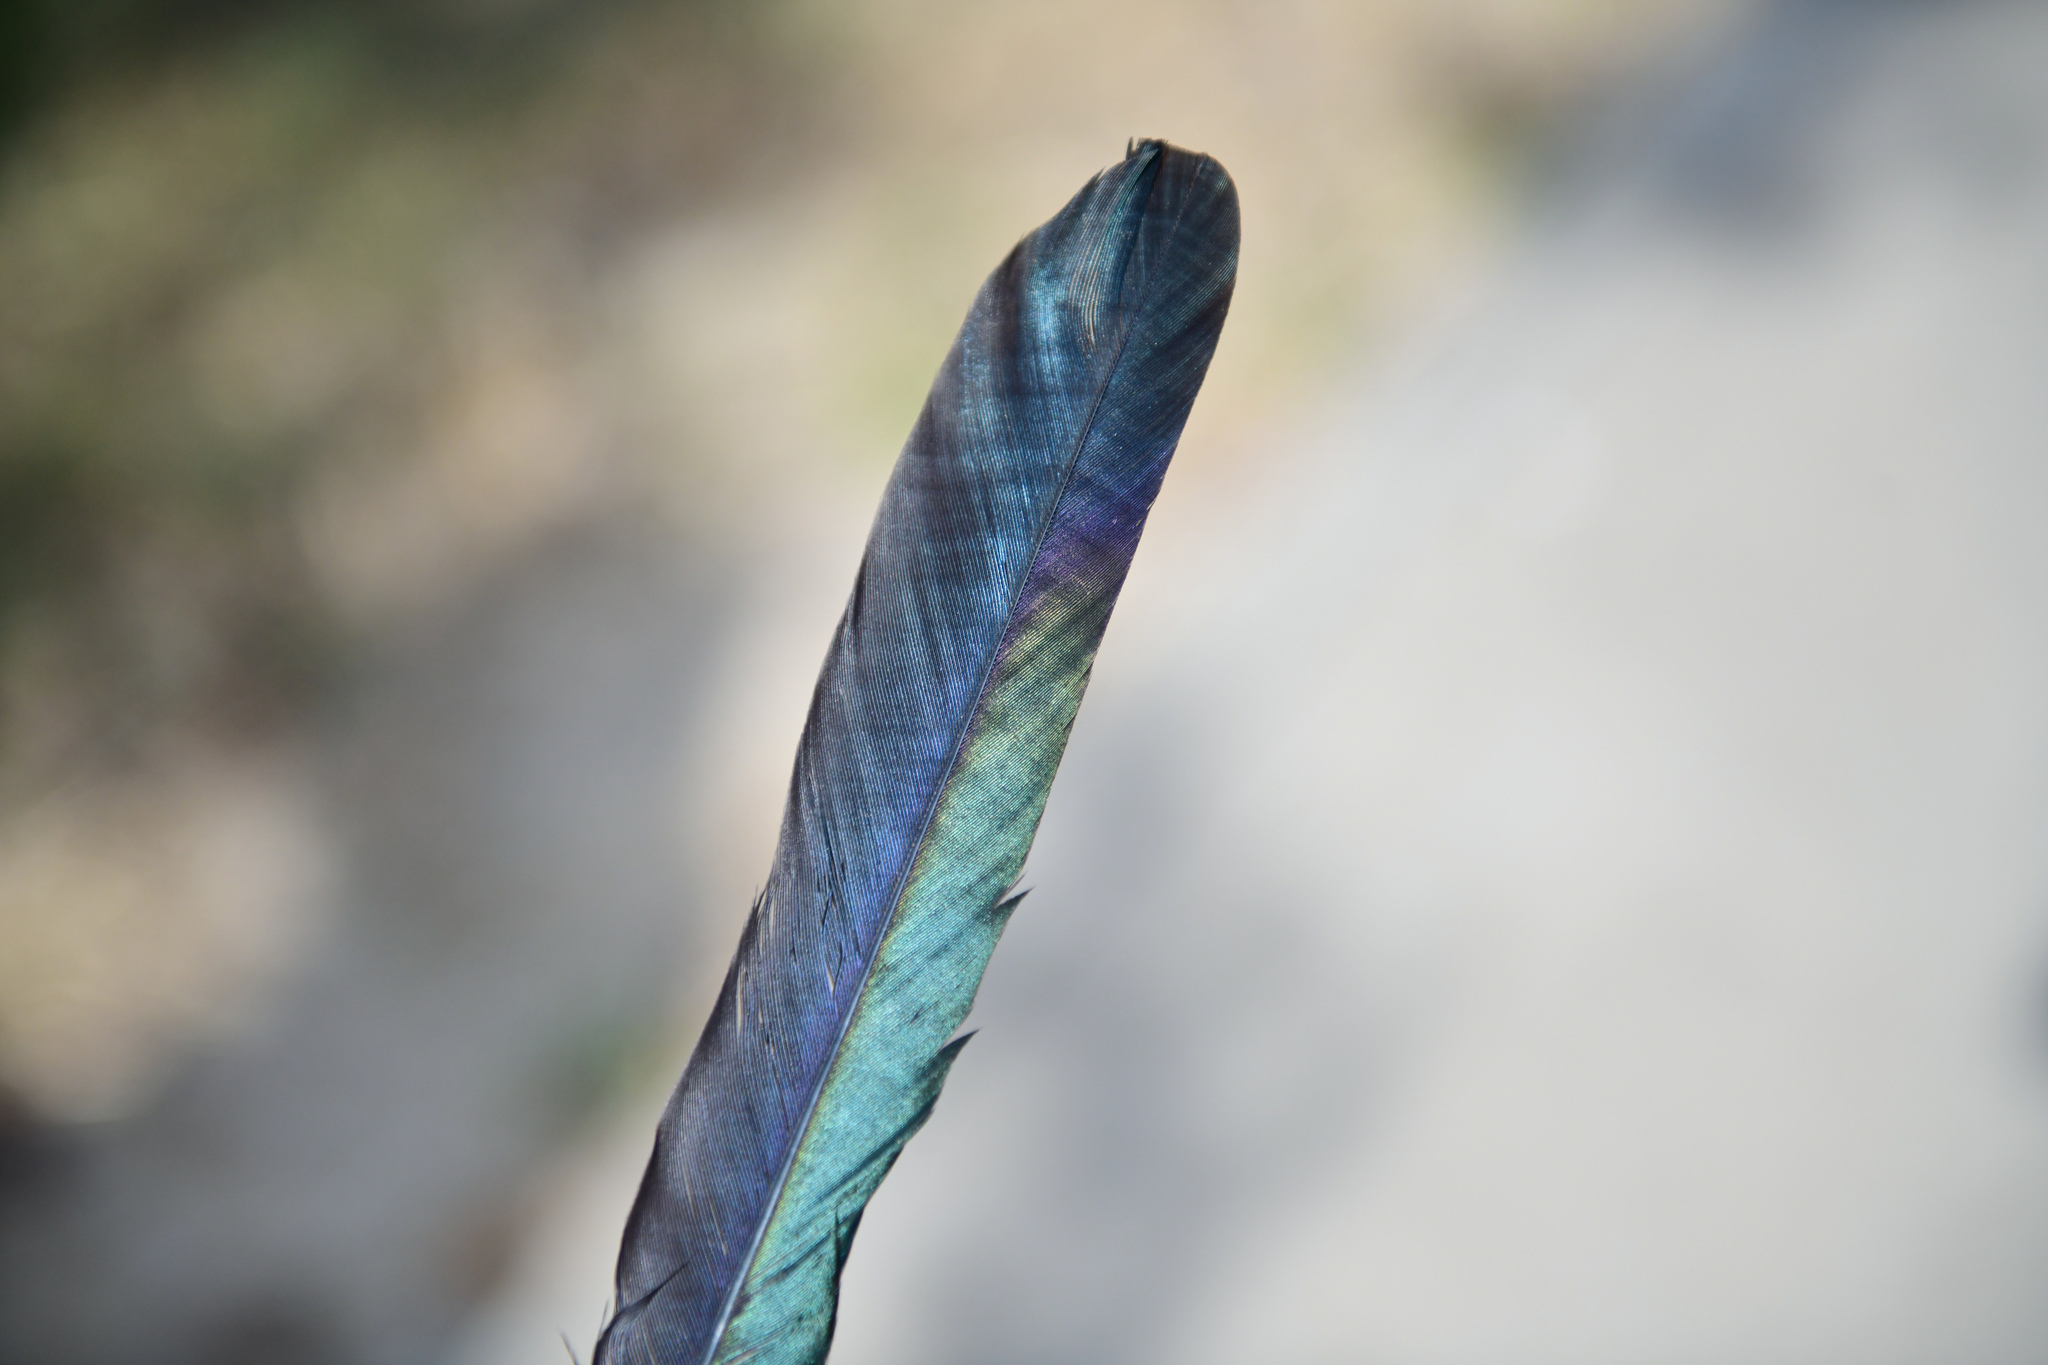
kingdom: Animalia
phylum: Chordata
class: Aves
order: Passeriformes
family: Corvidae
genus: Pica
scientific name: Pica serica
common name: Oriental magpie
